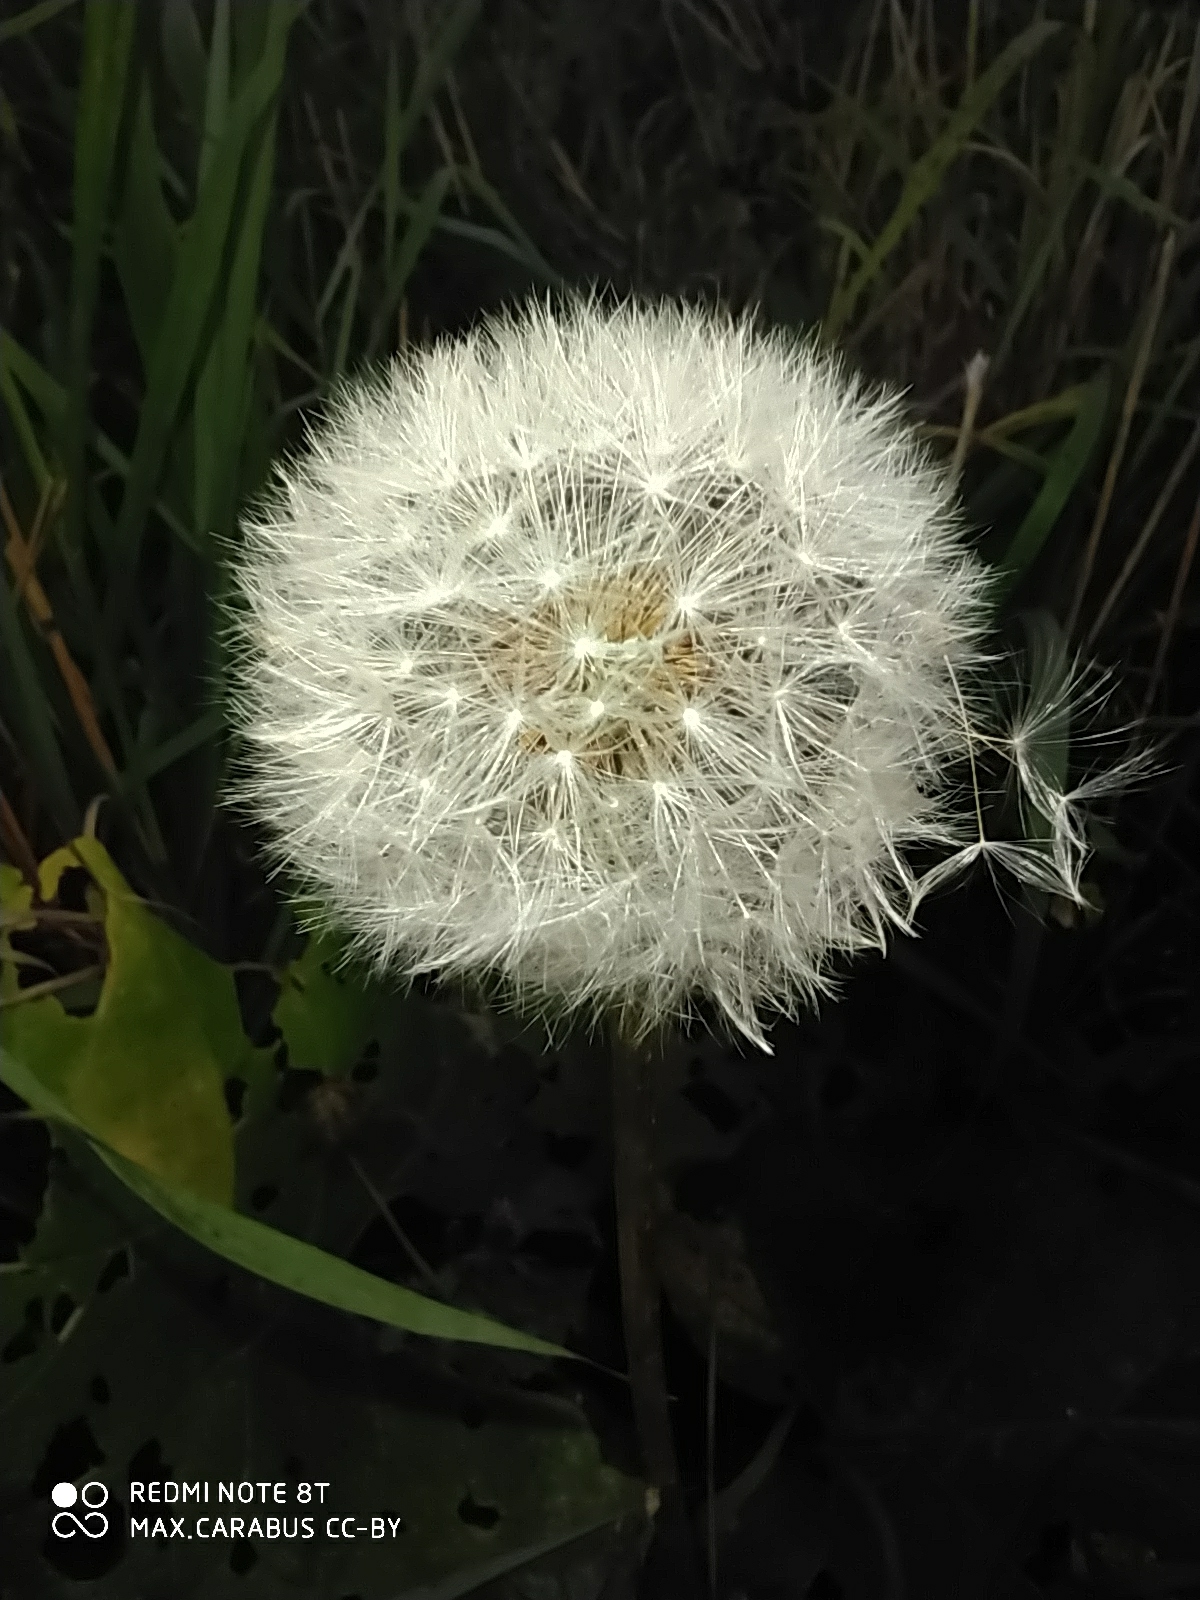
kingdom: Plantae
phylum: Tracheophyta
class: Magnoliopsida
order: Asterales
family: Asteraceae
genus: Taraxacum
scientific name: Taraxacum officinale
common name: Common dandelion
